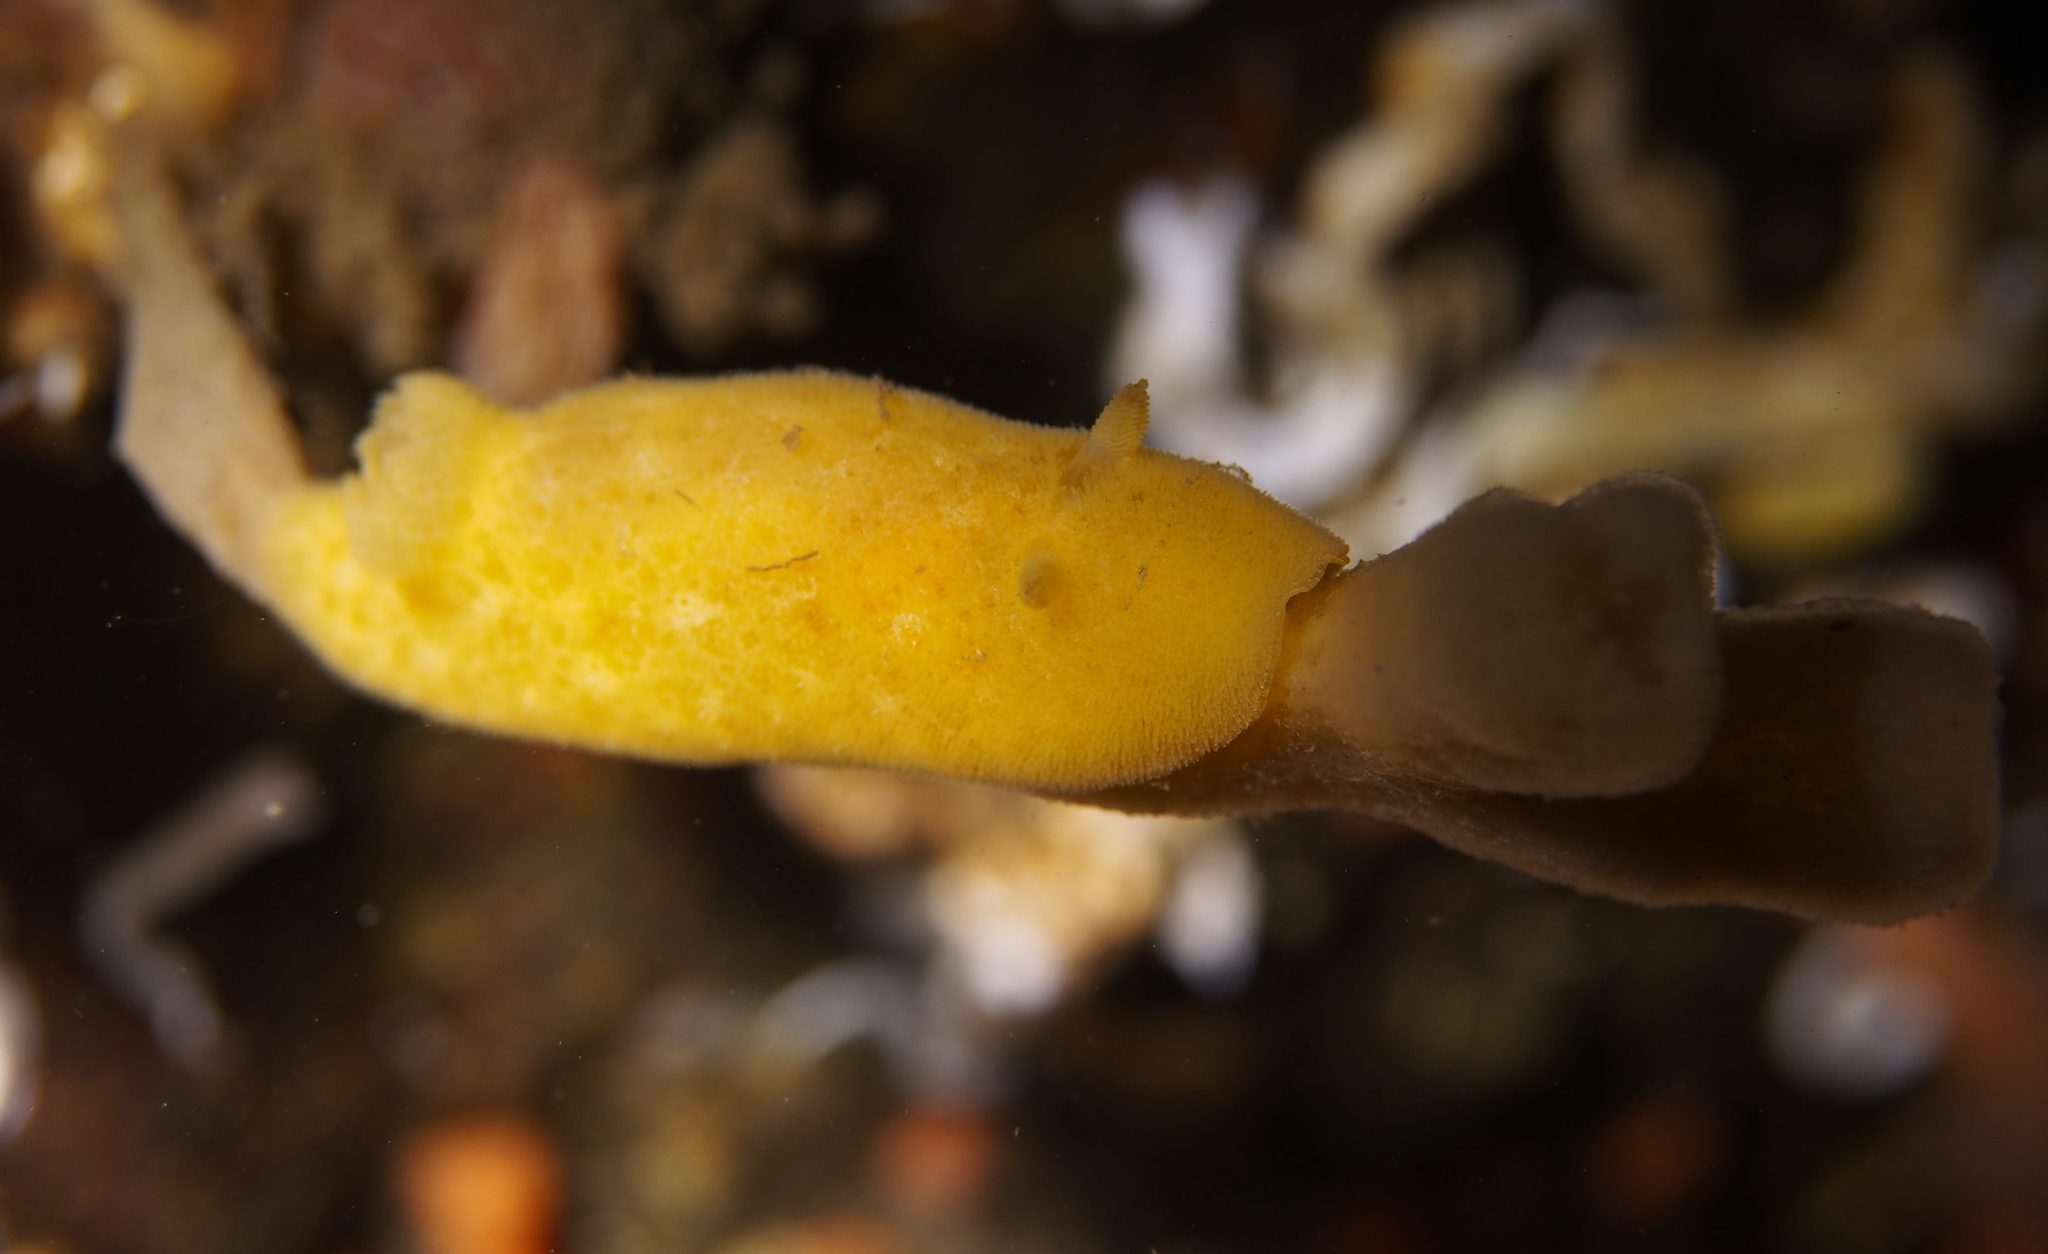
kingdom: Animalia
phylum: Mollusca
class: Gastropoda
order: Nudibranchia
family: Discodorididae
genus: Jorunna
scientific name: Jorunna tomentosa
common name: Grey sea slug
